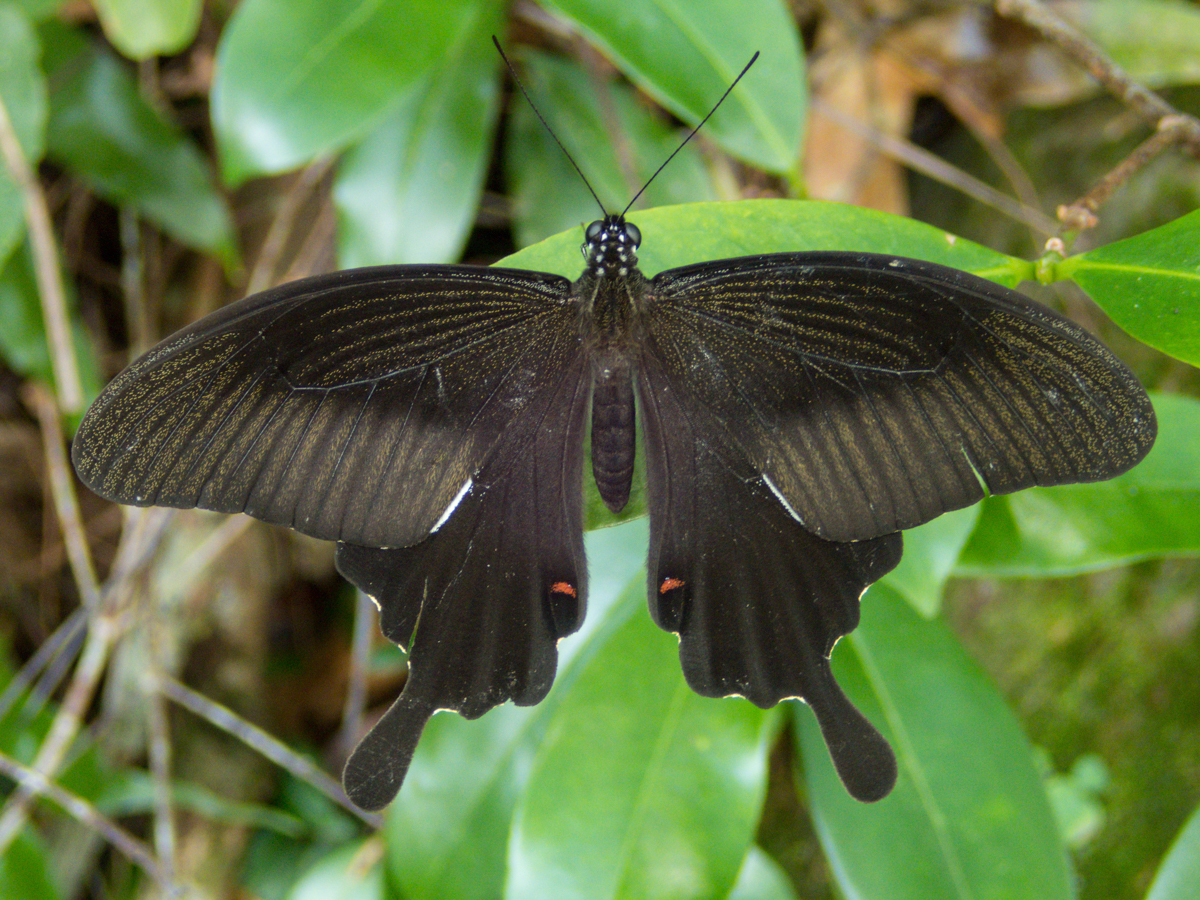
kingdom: Animalia
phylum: Arthropoda
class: Insecta
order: Lepidoptera
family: Papilionidae
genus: Papilio
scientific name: Papilio helenus
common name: Red helen
